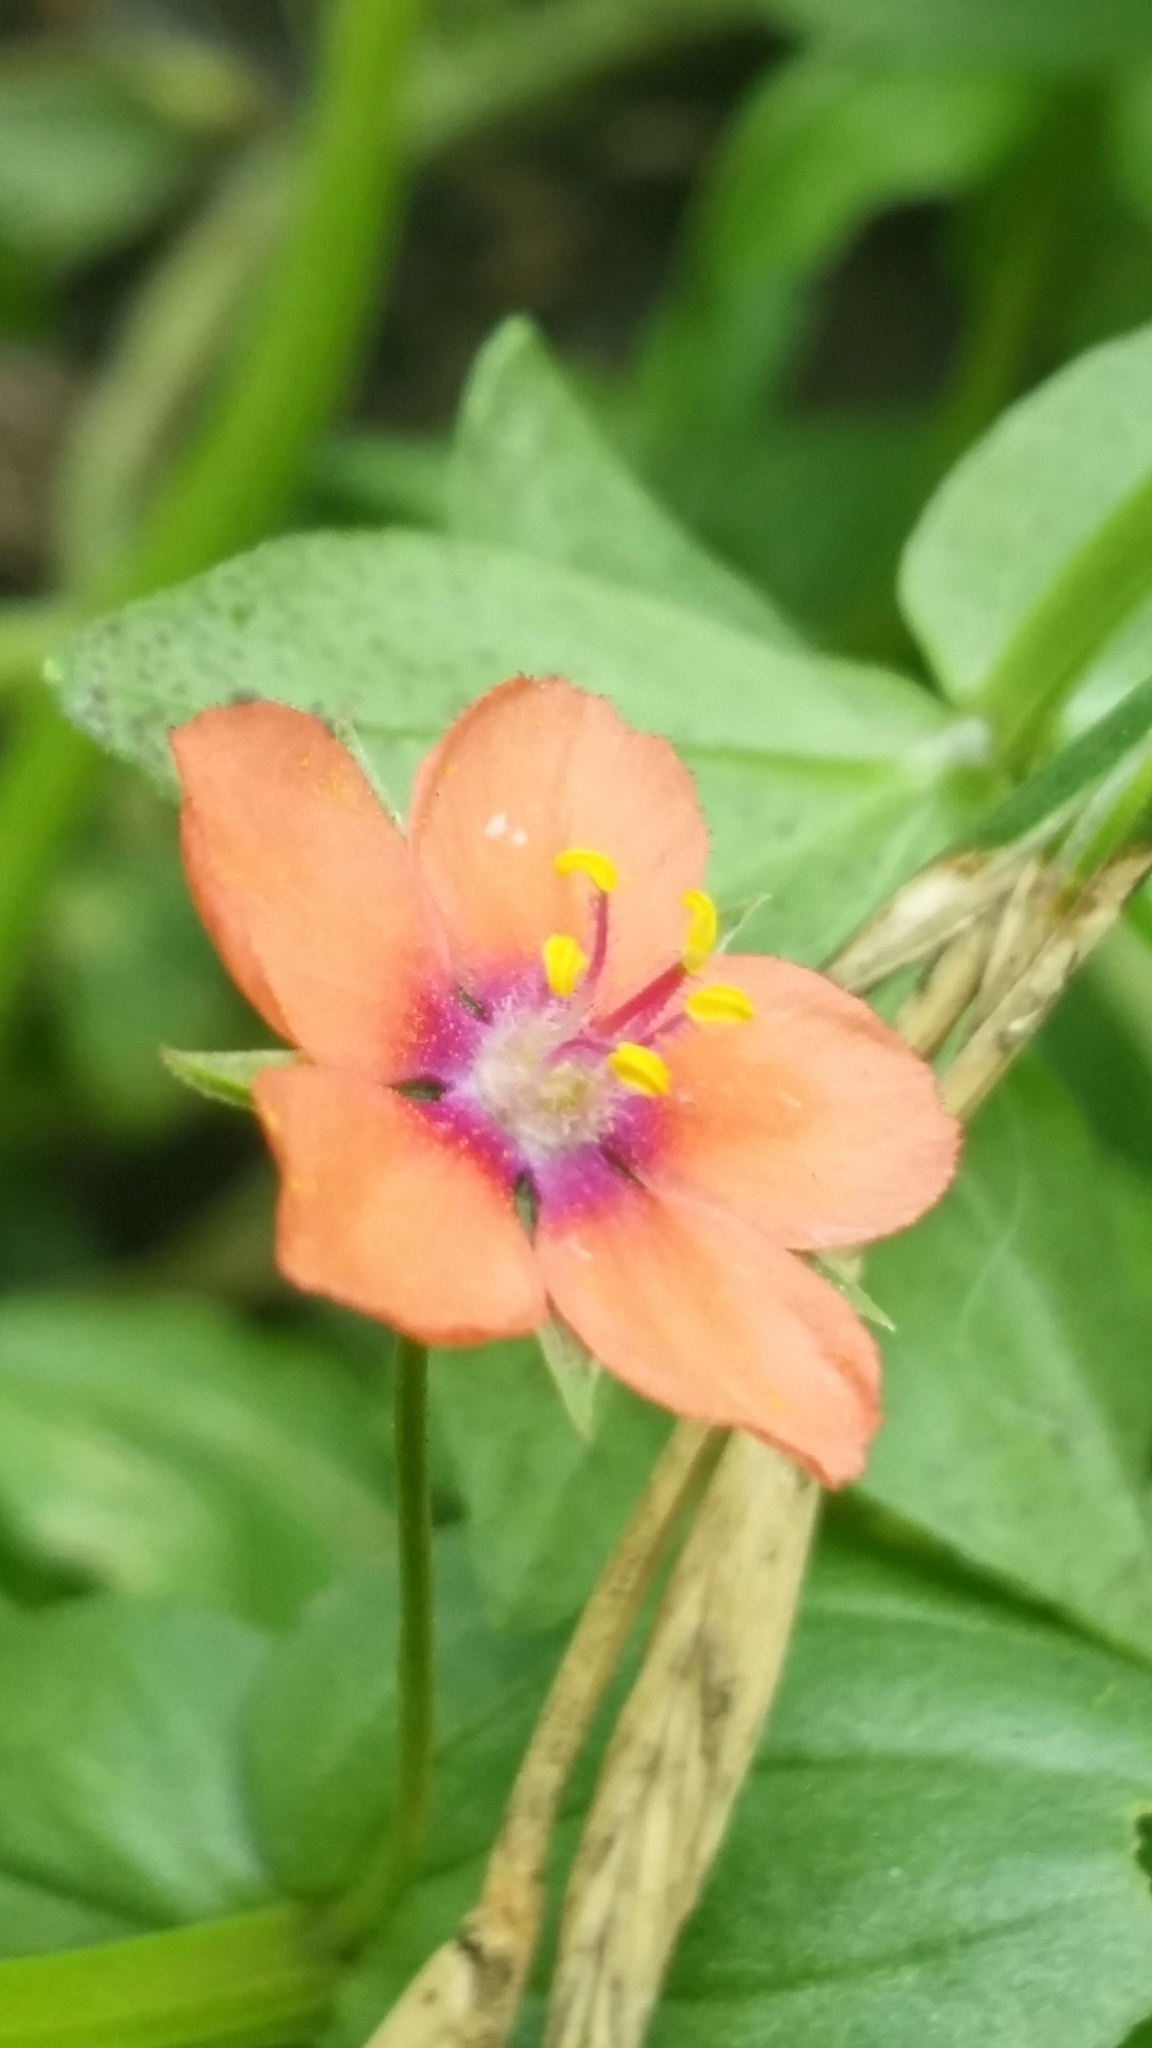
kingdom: Plantae
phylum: Tracheophyta
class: Magnoliopsida
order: Ericales
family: Primulaceae
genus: Lysimachia
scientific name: Lysimachia arvensis
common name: Scarlet pimpernel
